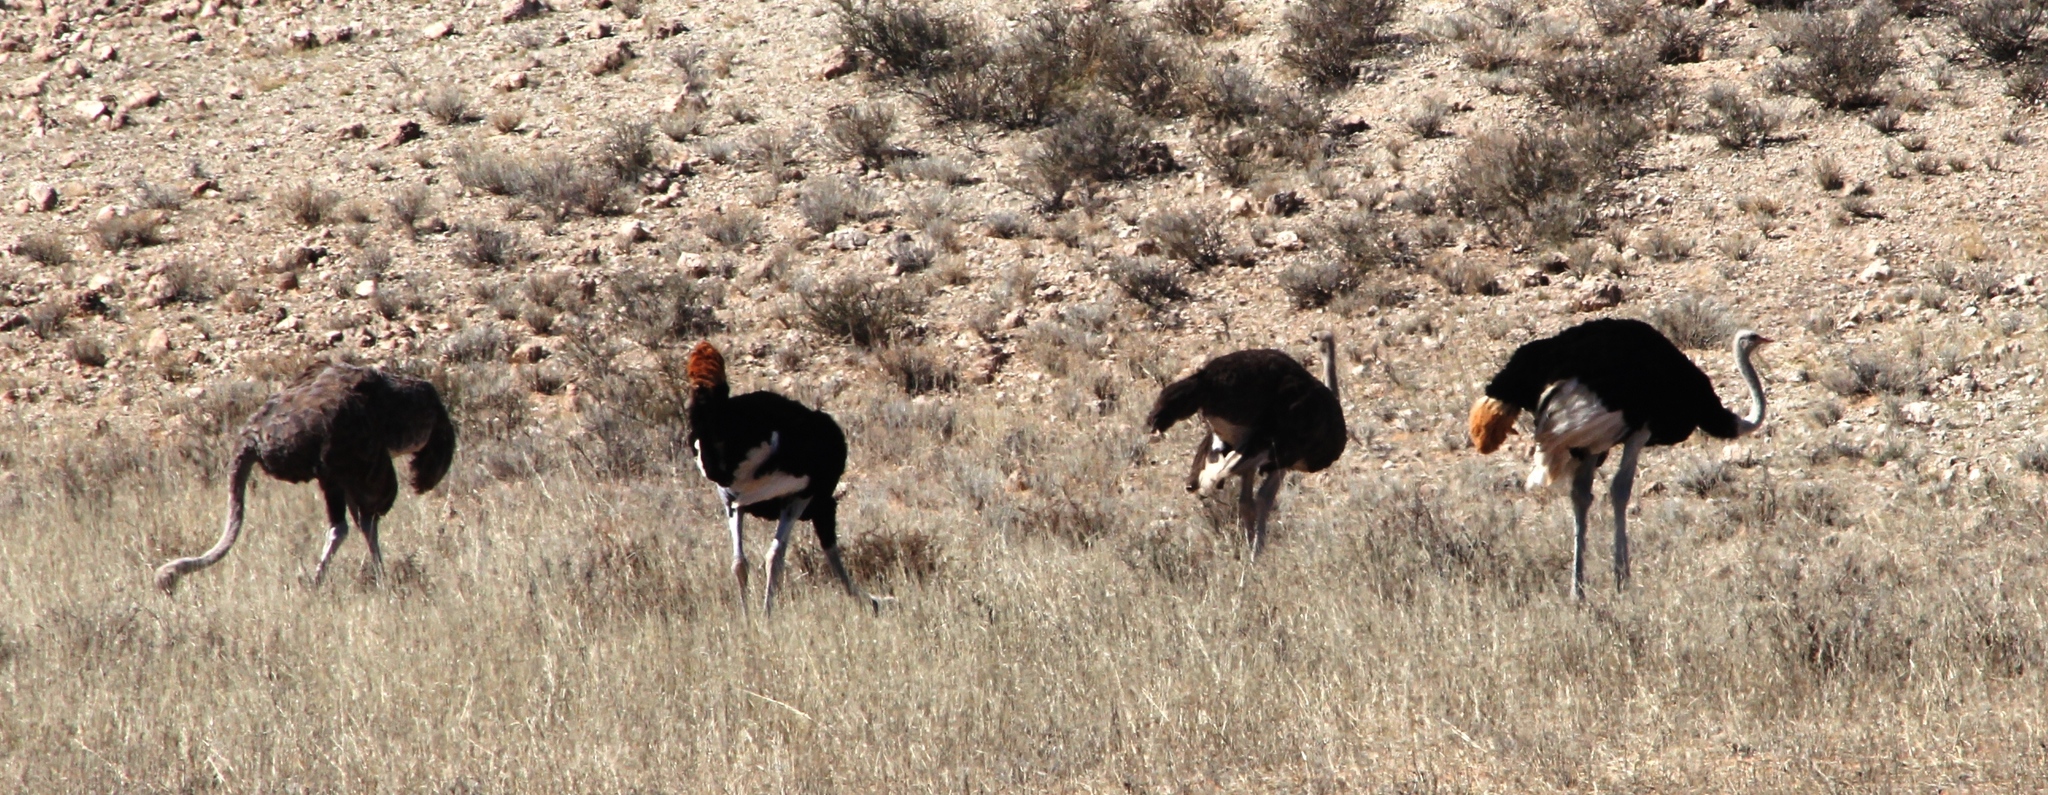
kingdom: Animalia
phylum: Chordata
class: Aves
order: Struthioniformes
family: Struthionidae
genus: Struthio
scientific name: Struthio camelus
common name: Common ostrich
